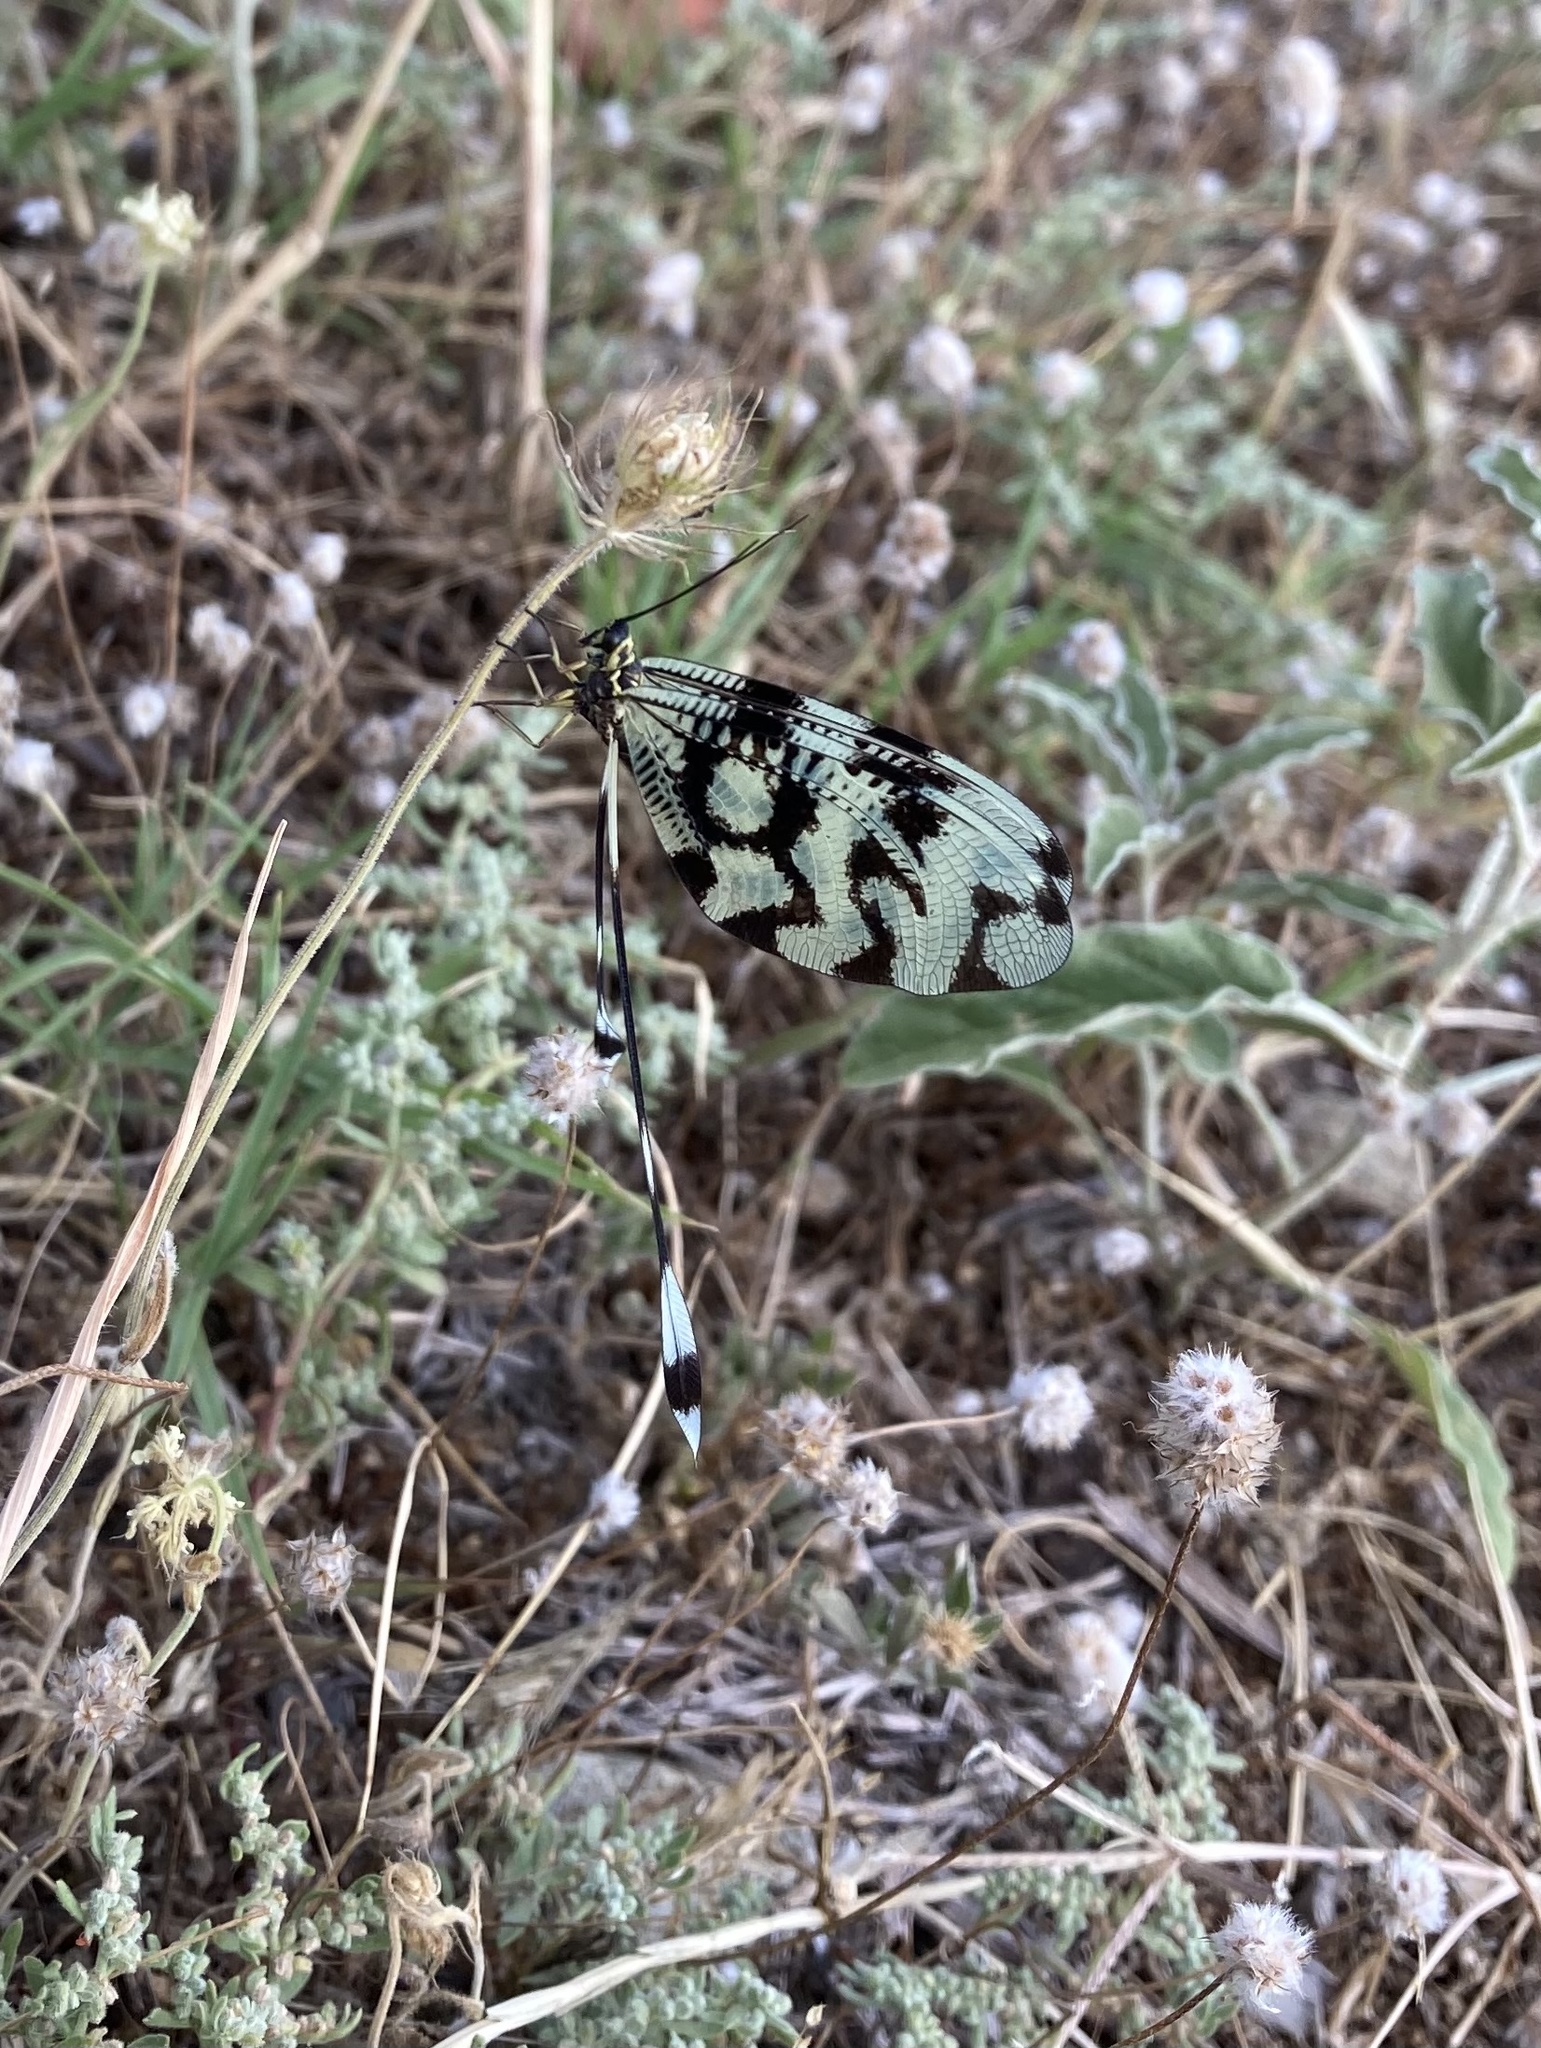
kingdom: Animalia
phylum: Arthropoda
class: Insecta
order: Neuroptera
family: Nemopteridae
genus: Nemoptera
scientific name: Nemoptera sinuata
